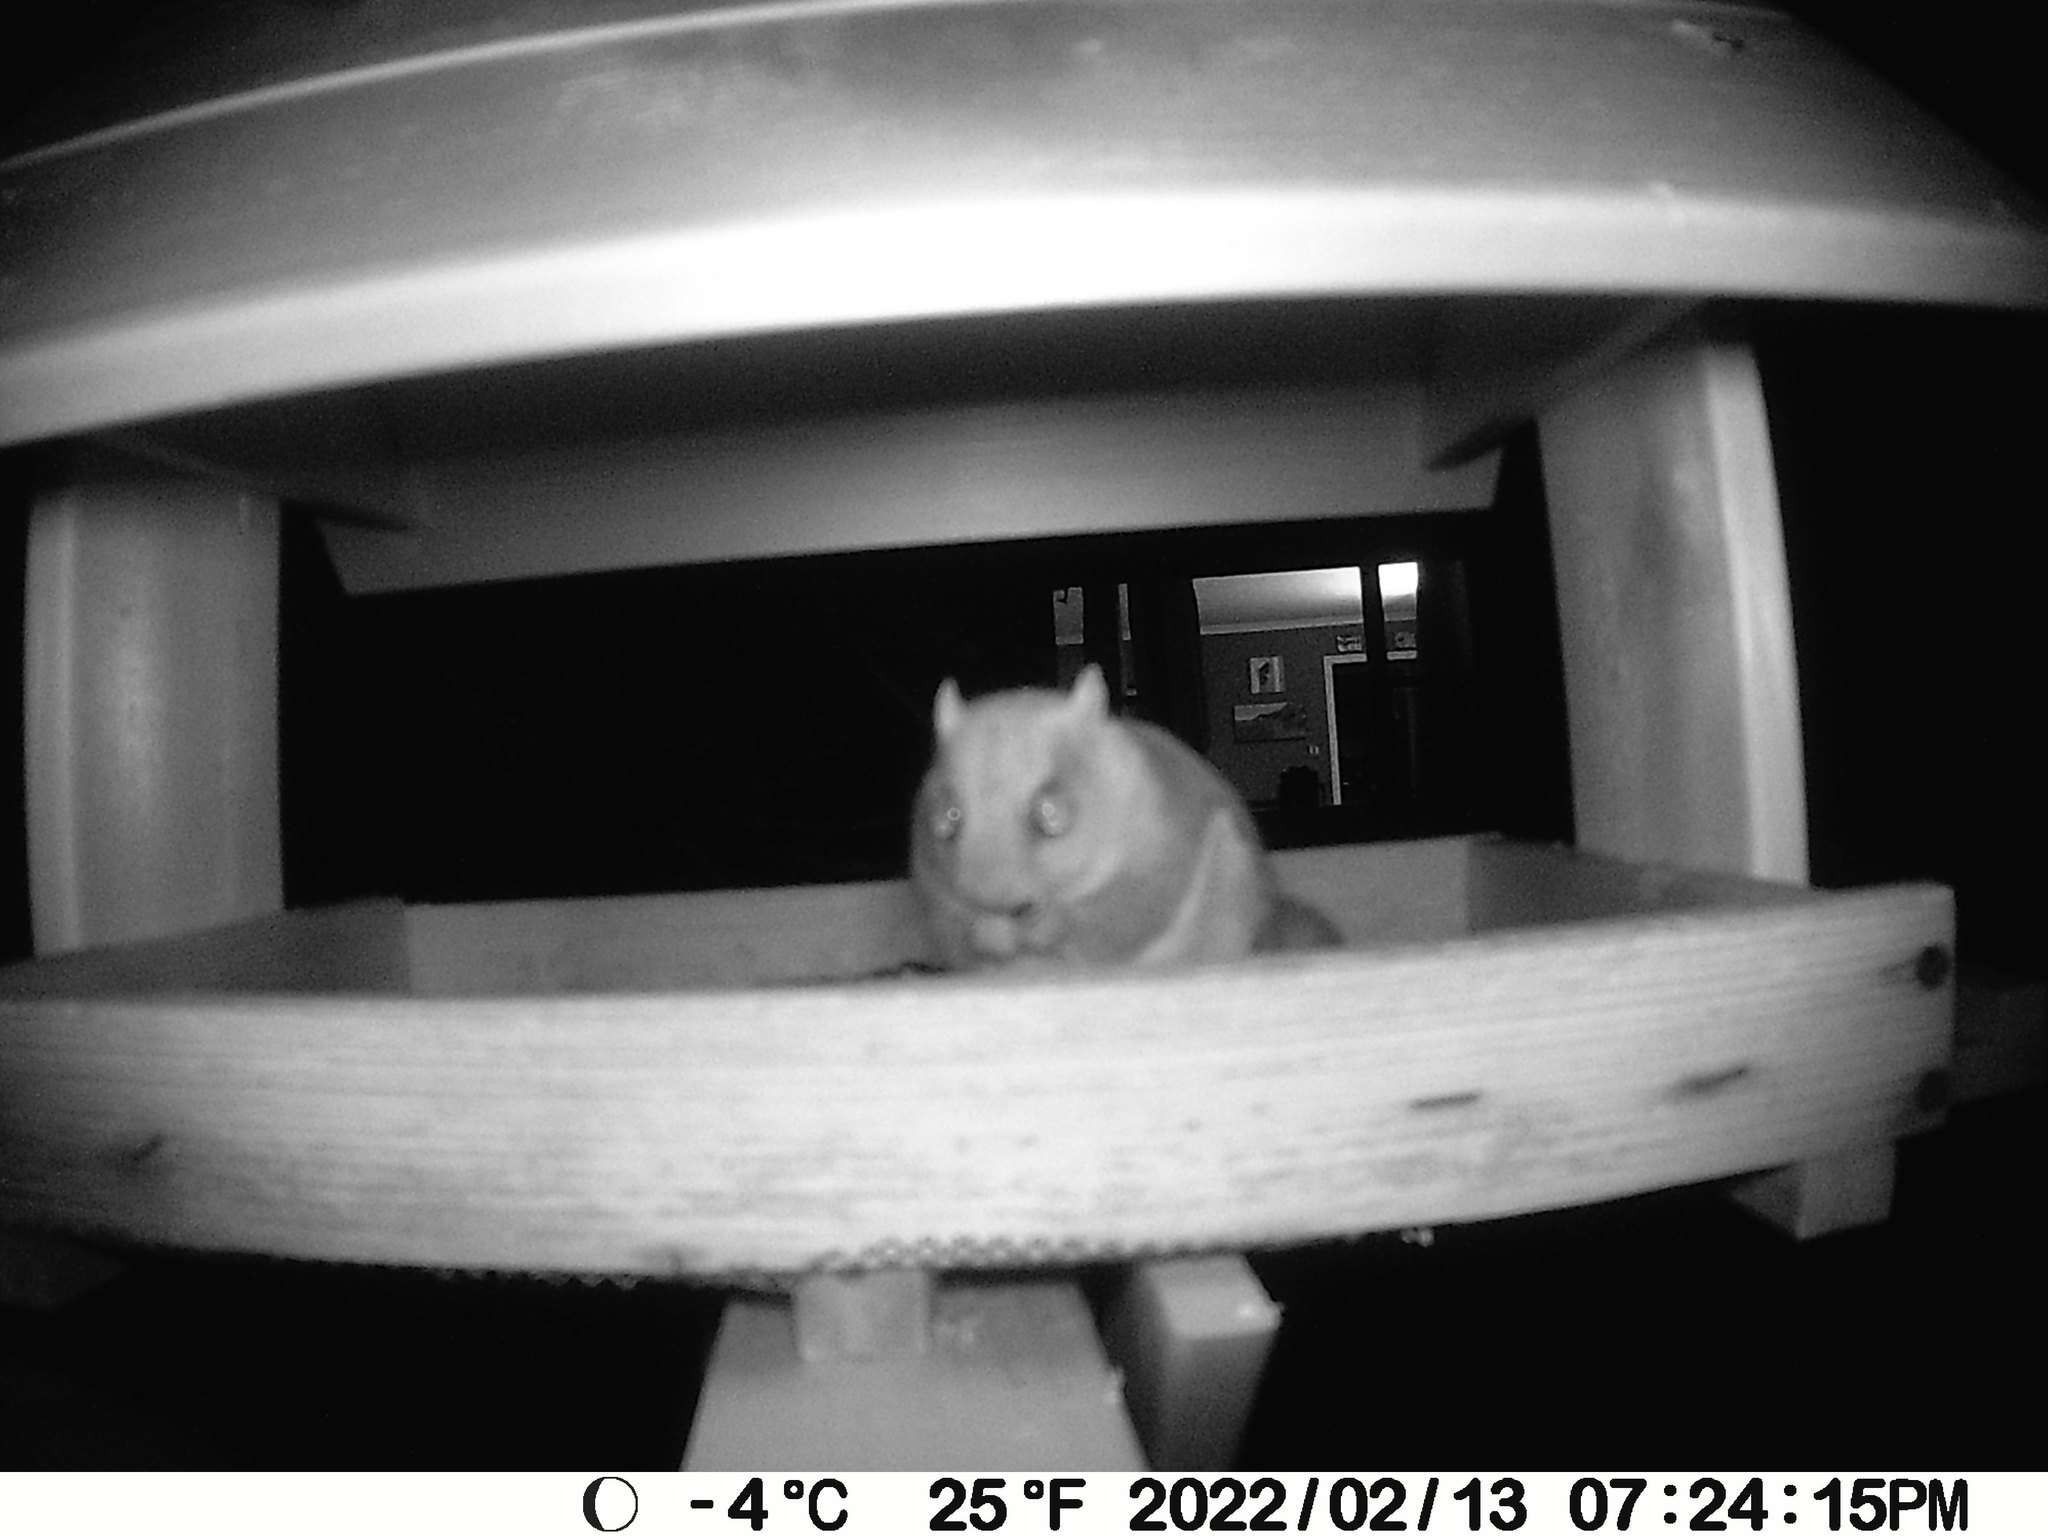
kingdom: Animalia
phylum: Chordata
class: Mammalia
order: Rodentia
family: Sciuridae
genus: Glaucomys
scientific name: Glaucomys sabrinus
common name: Northern flying squirrel
